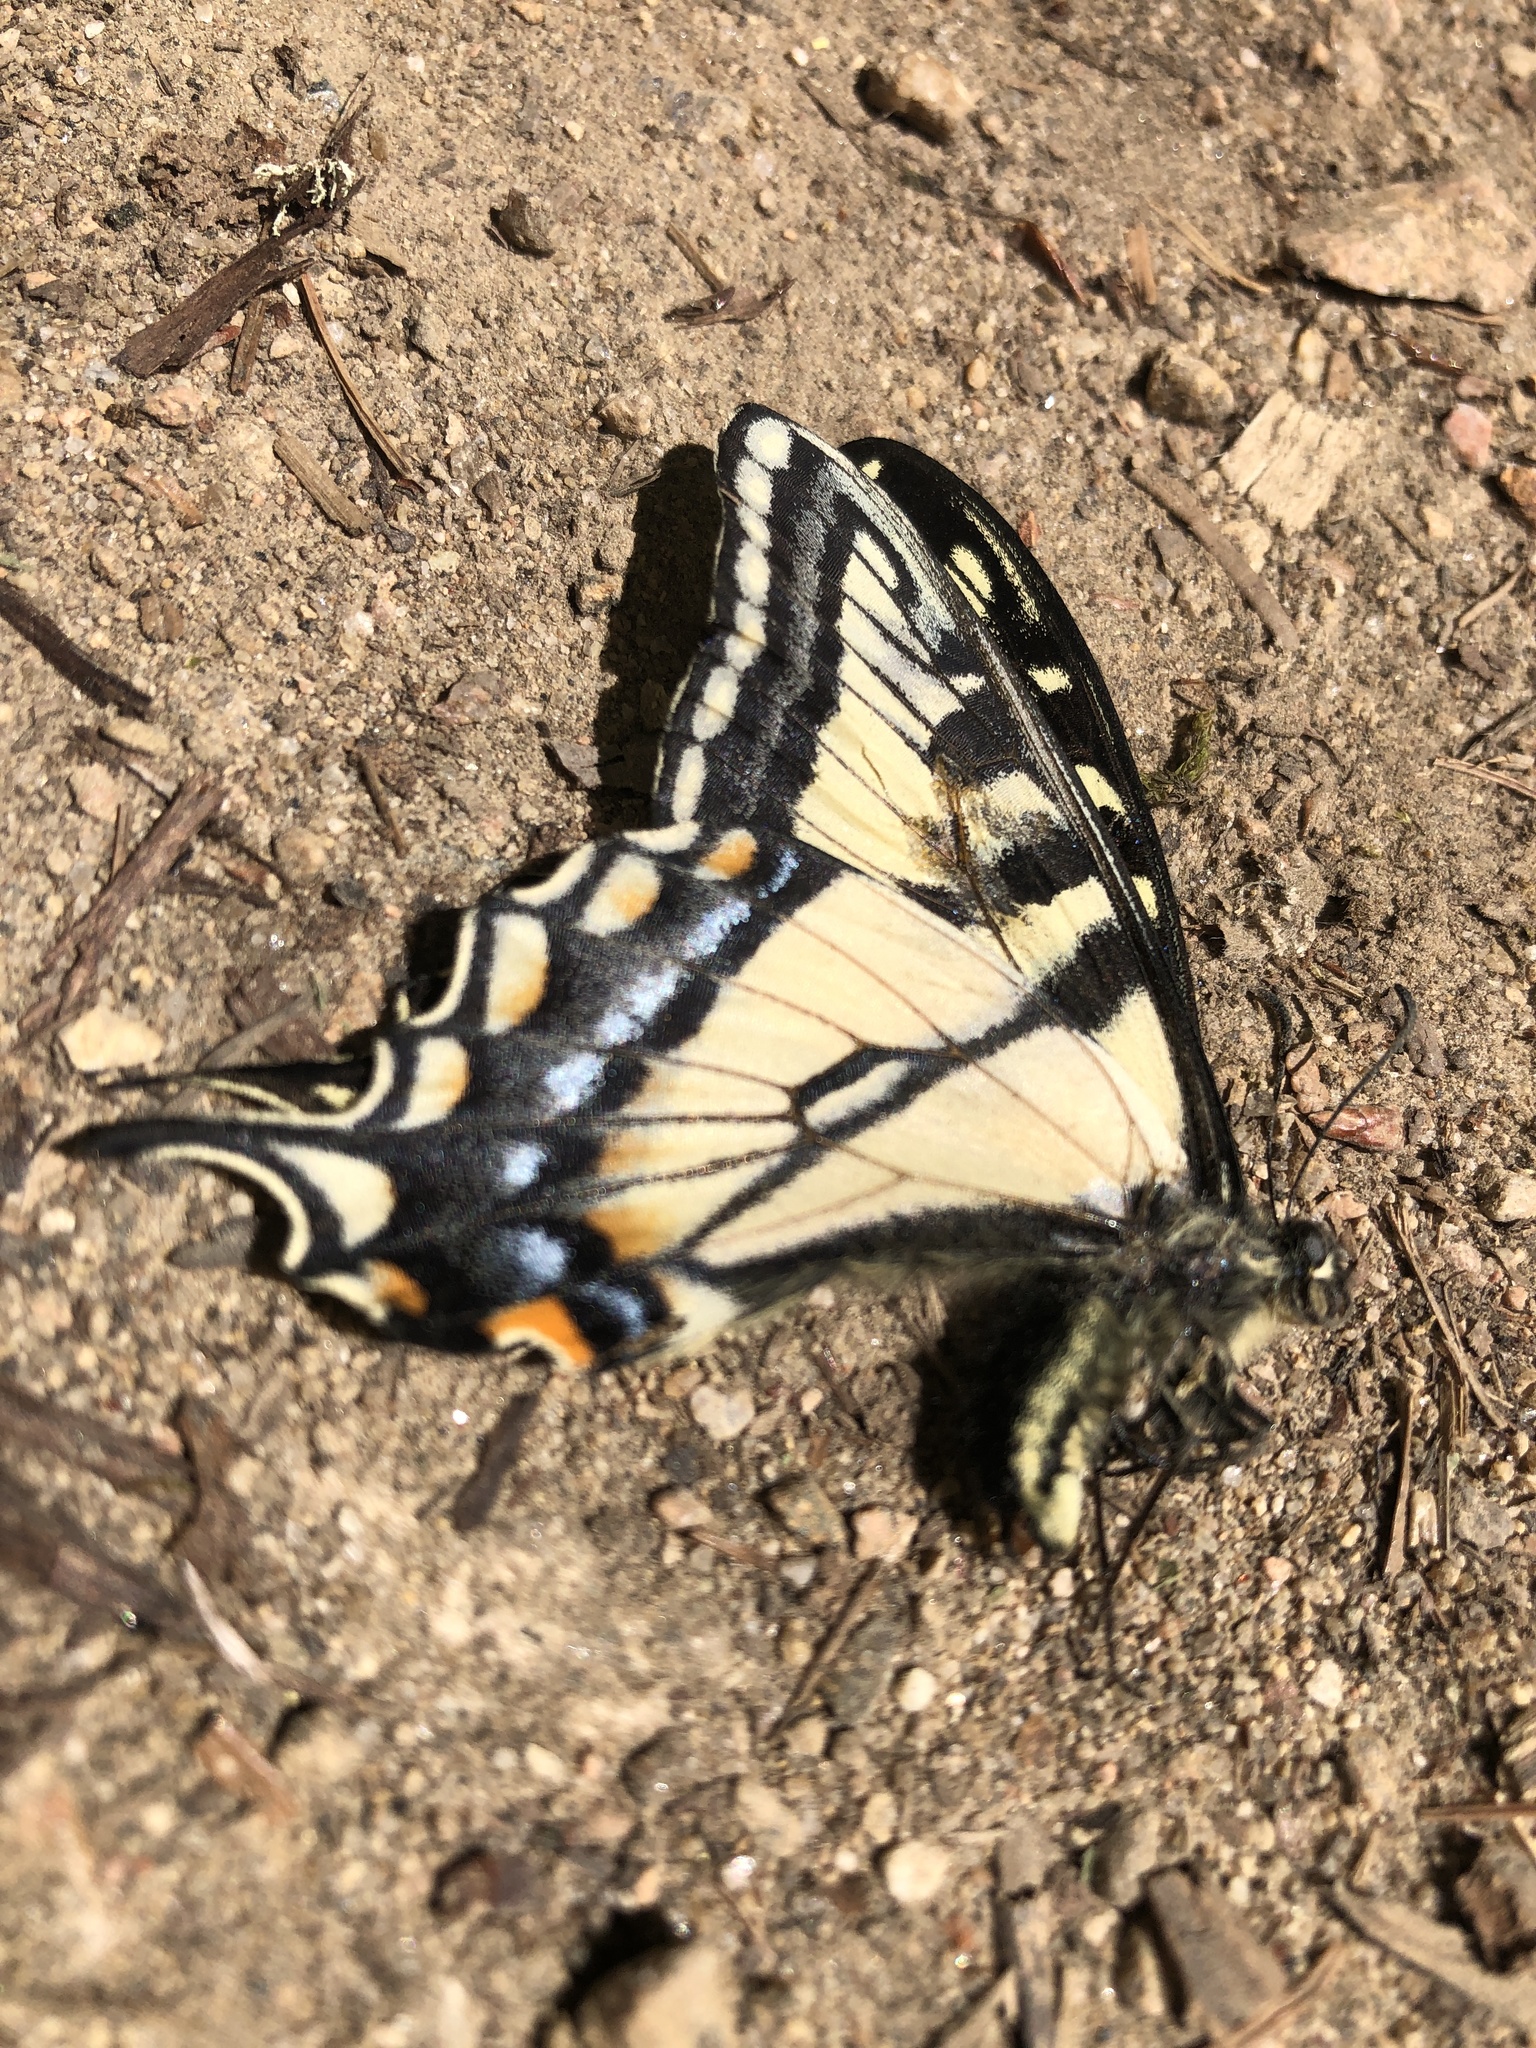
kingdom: Animalia
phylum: Arthropoda
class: Insecta
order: Lepidoptera
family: Papilionidae
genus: Papilio
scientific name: Papilio canadensis
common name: Canadian tiger swallowtail
